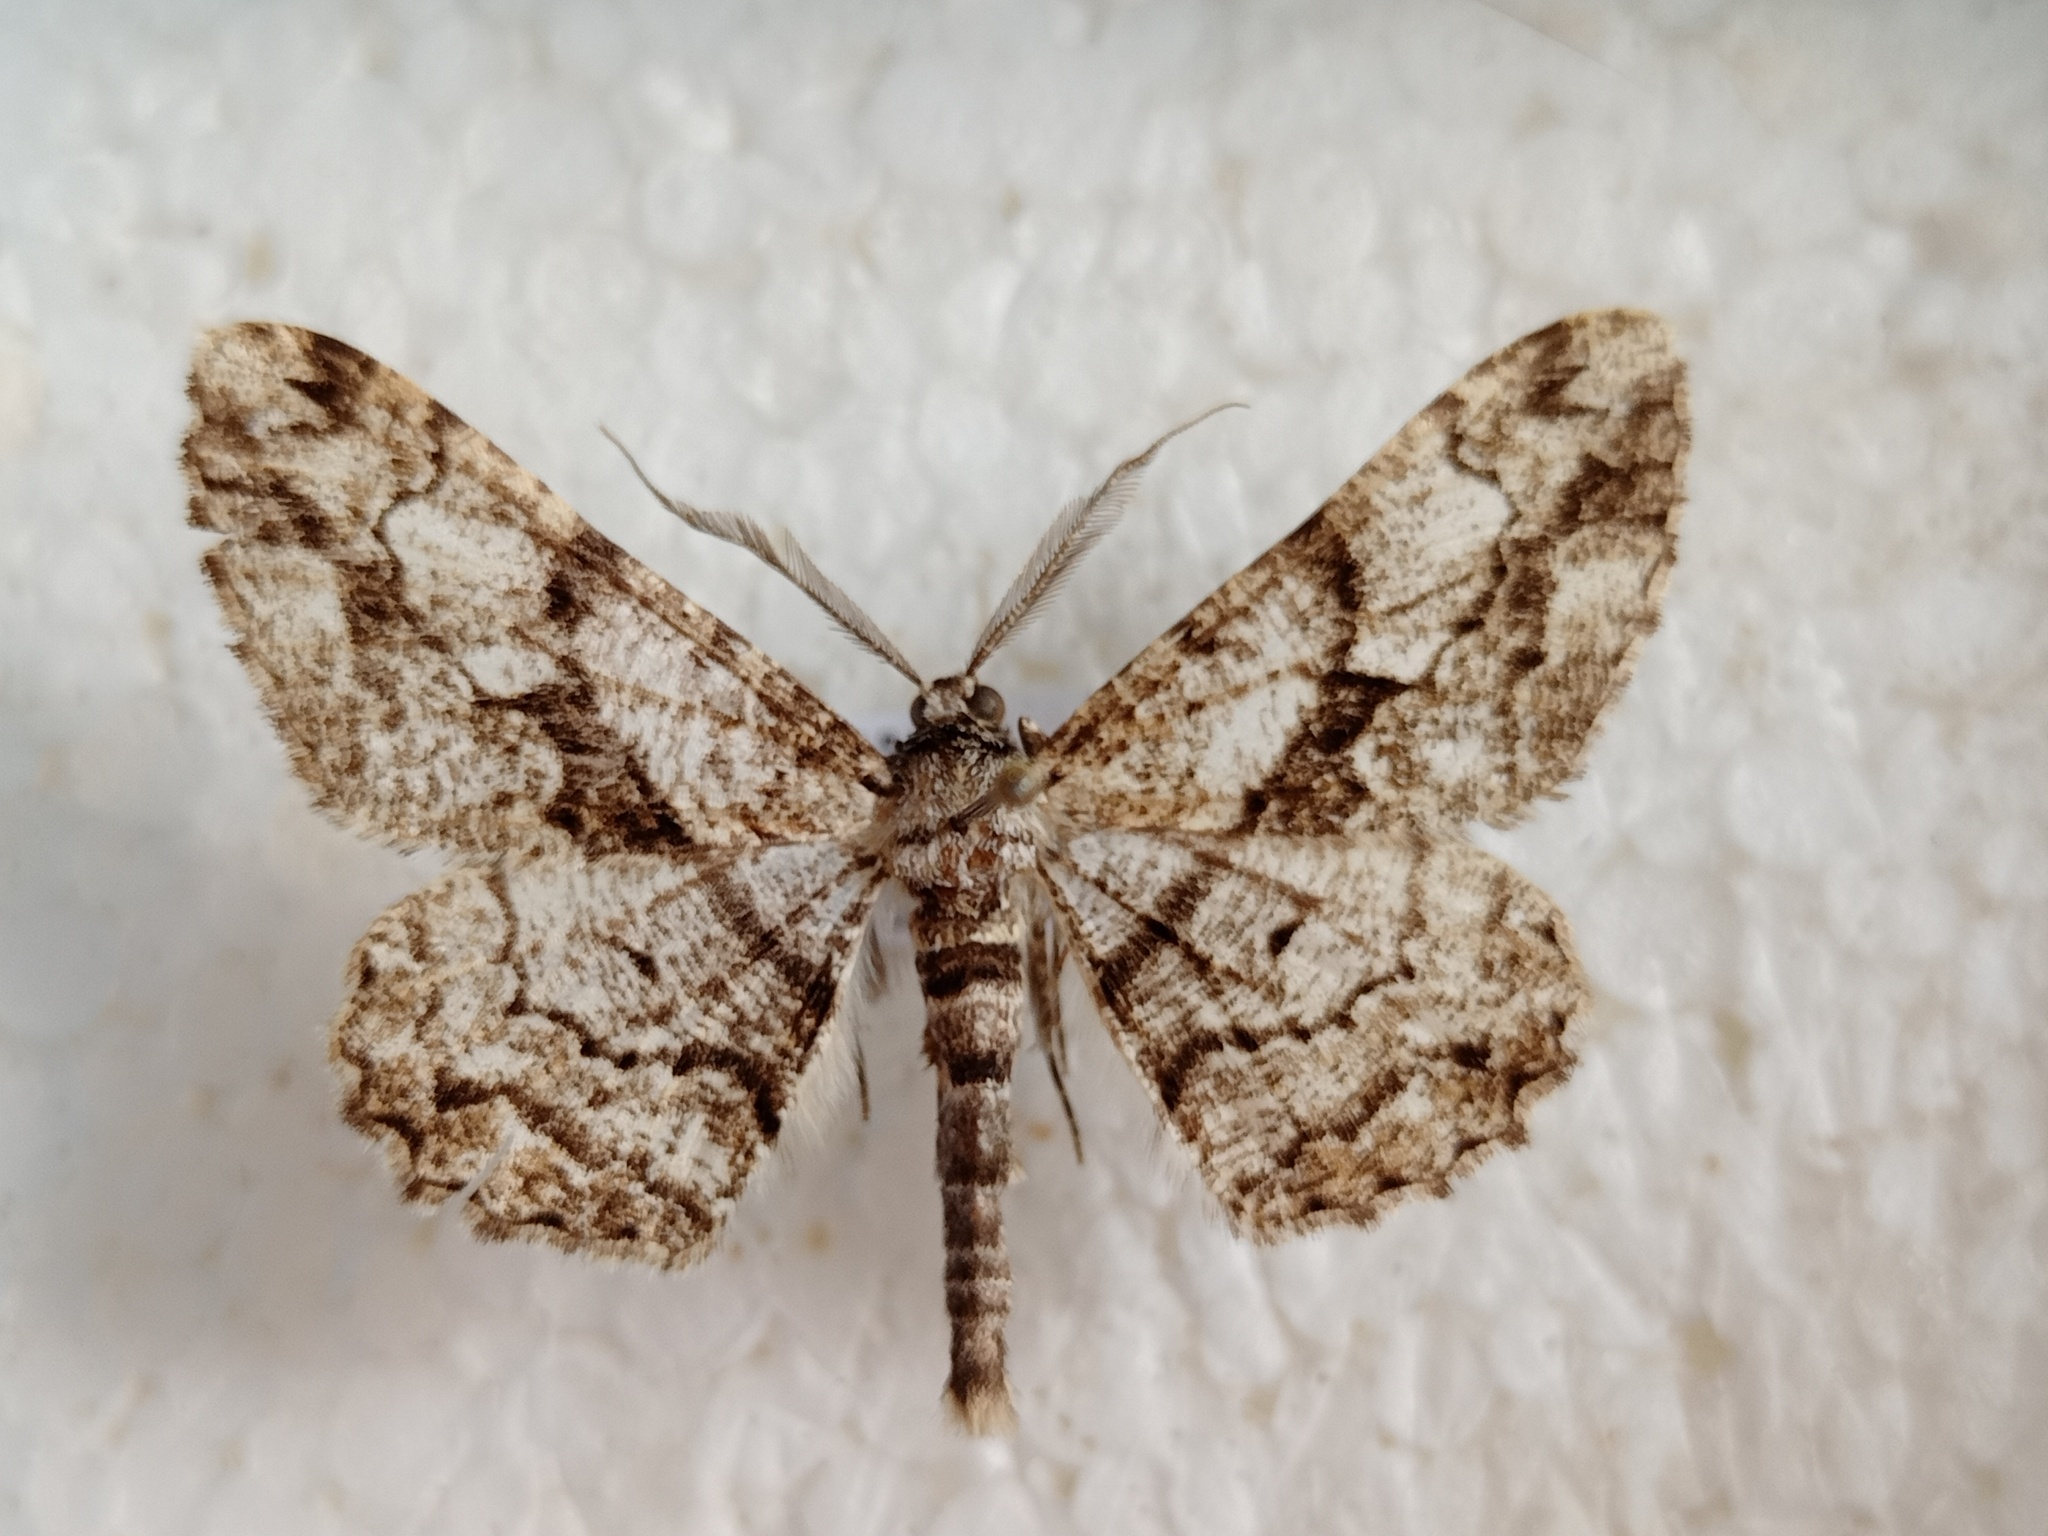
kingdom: Animalia
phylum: Arthropoda
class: Insecta
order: Lepidoptera
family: Geometridae
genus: Peribatodes
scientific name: Peribatodes umbraria
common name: Olive-tree beauty
